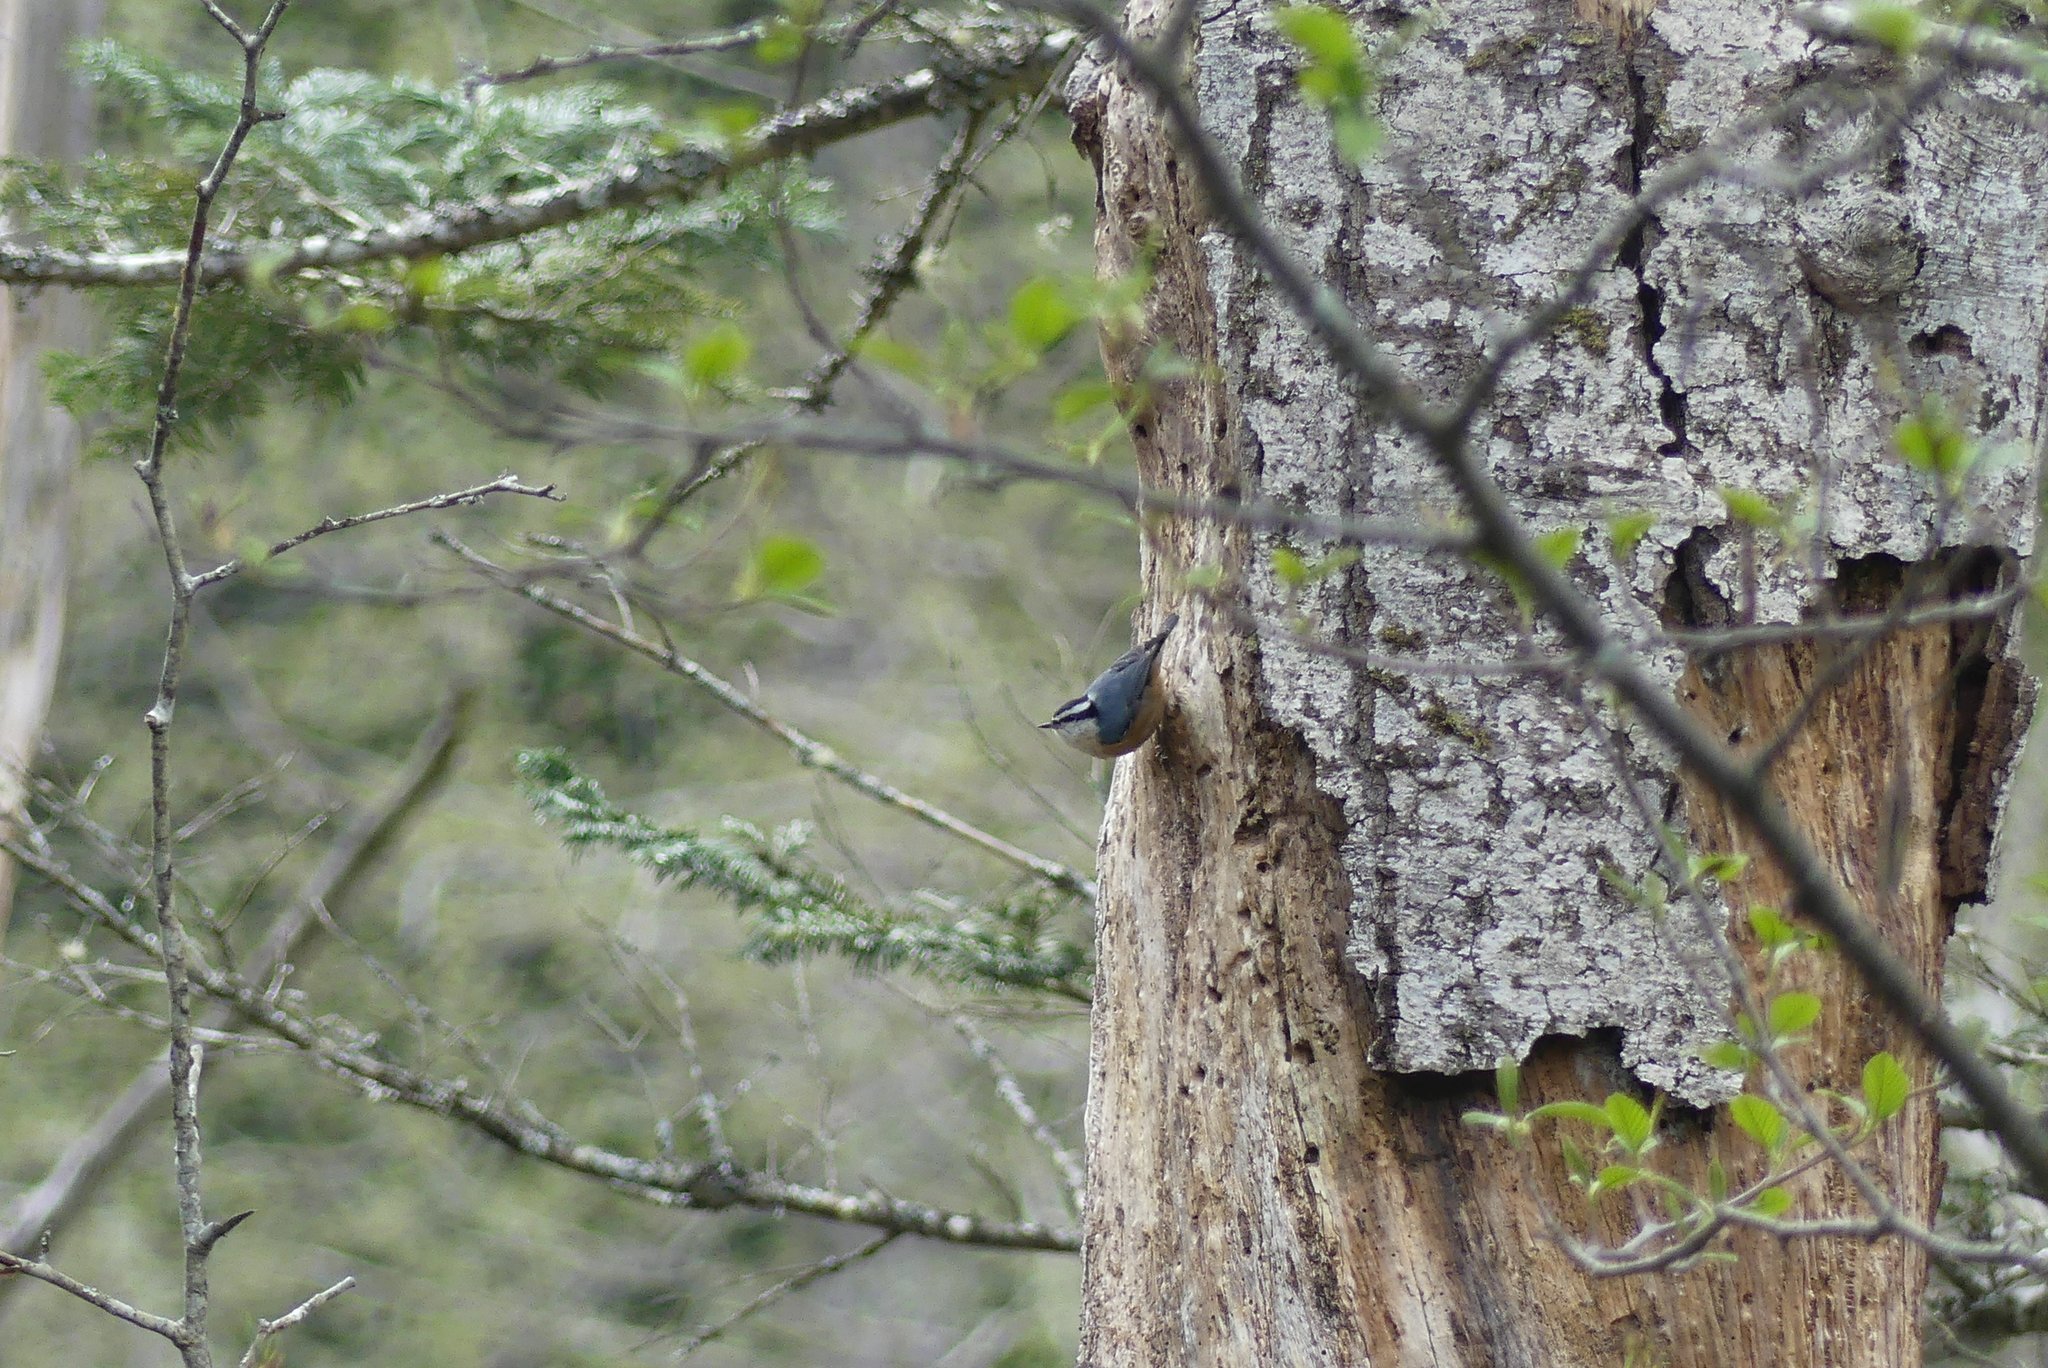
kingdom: Animalia
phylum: Chordata
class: Aves
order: Passeriformes
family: Sittidae
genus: Sitta
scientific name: Sitta canadensis
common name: Red-breasted nuthatch
